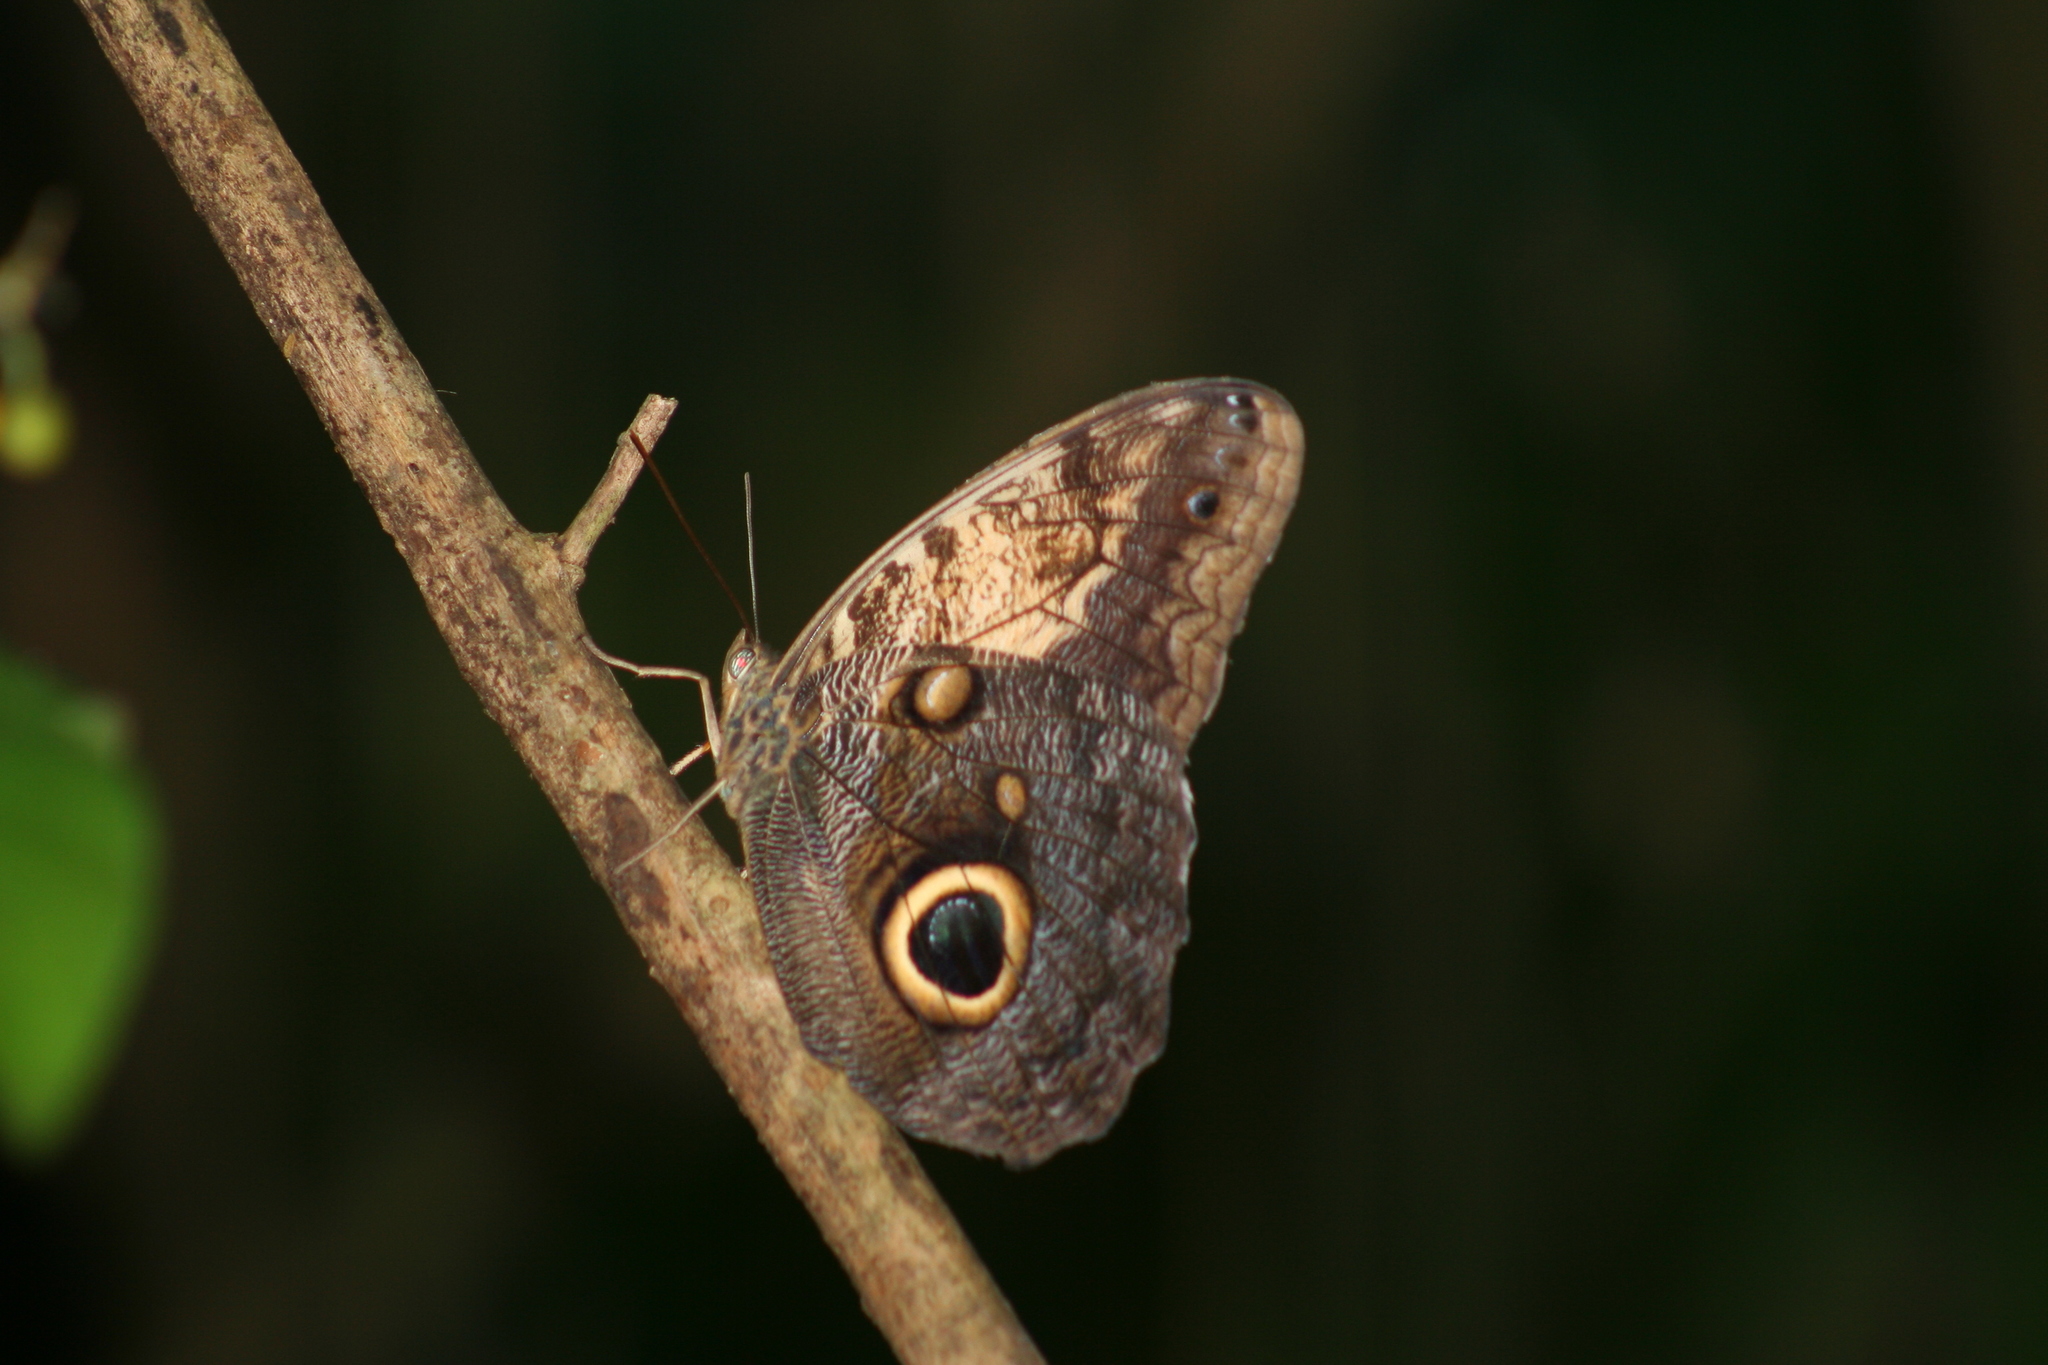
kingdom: Animalia
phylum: Arthropoda
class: Insecta
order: Lepidoptera
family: Nymphalidae
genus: Caligo
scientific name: Caligo telamonius
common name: Pale owl-butterfly
